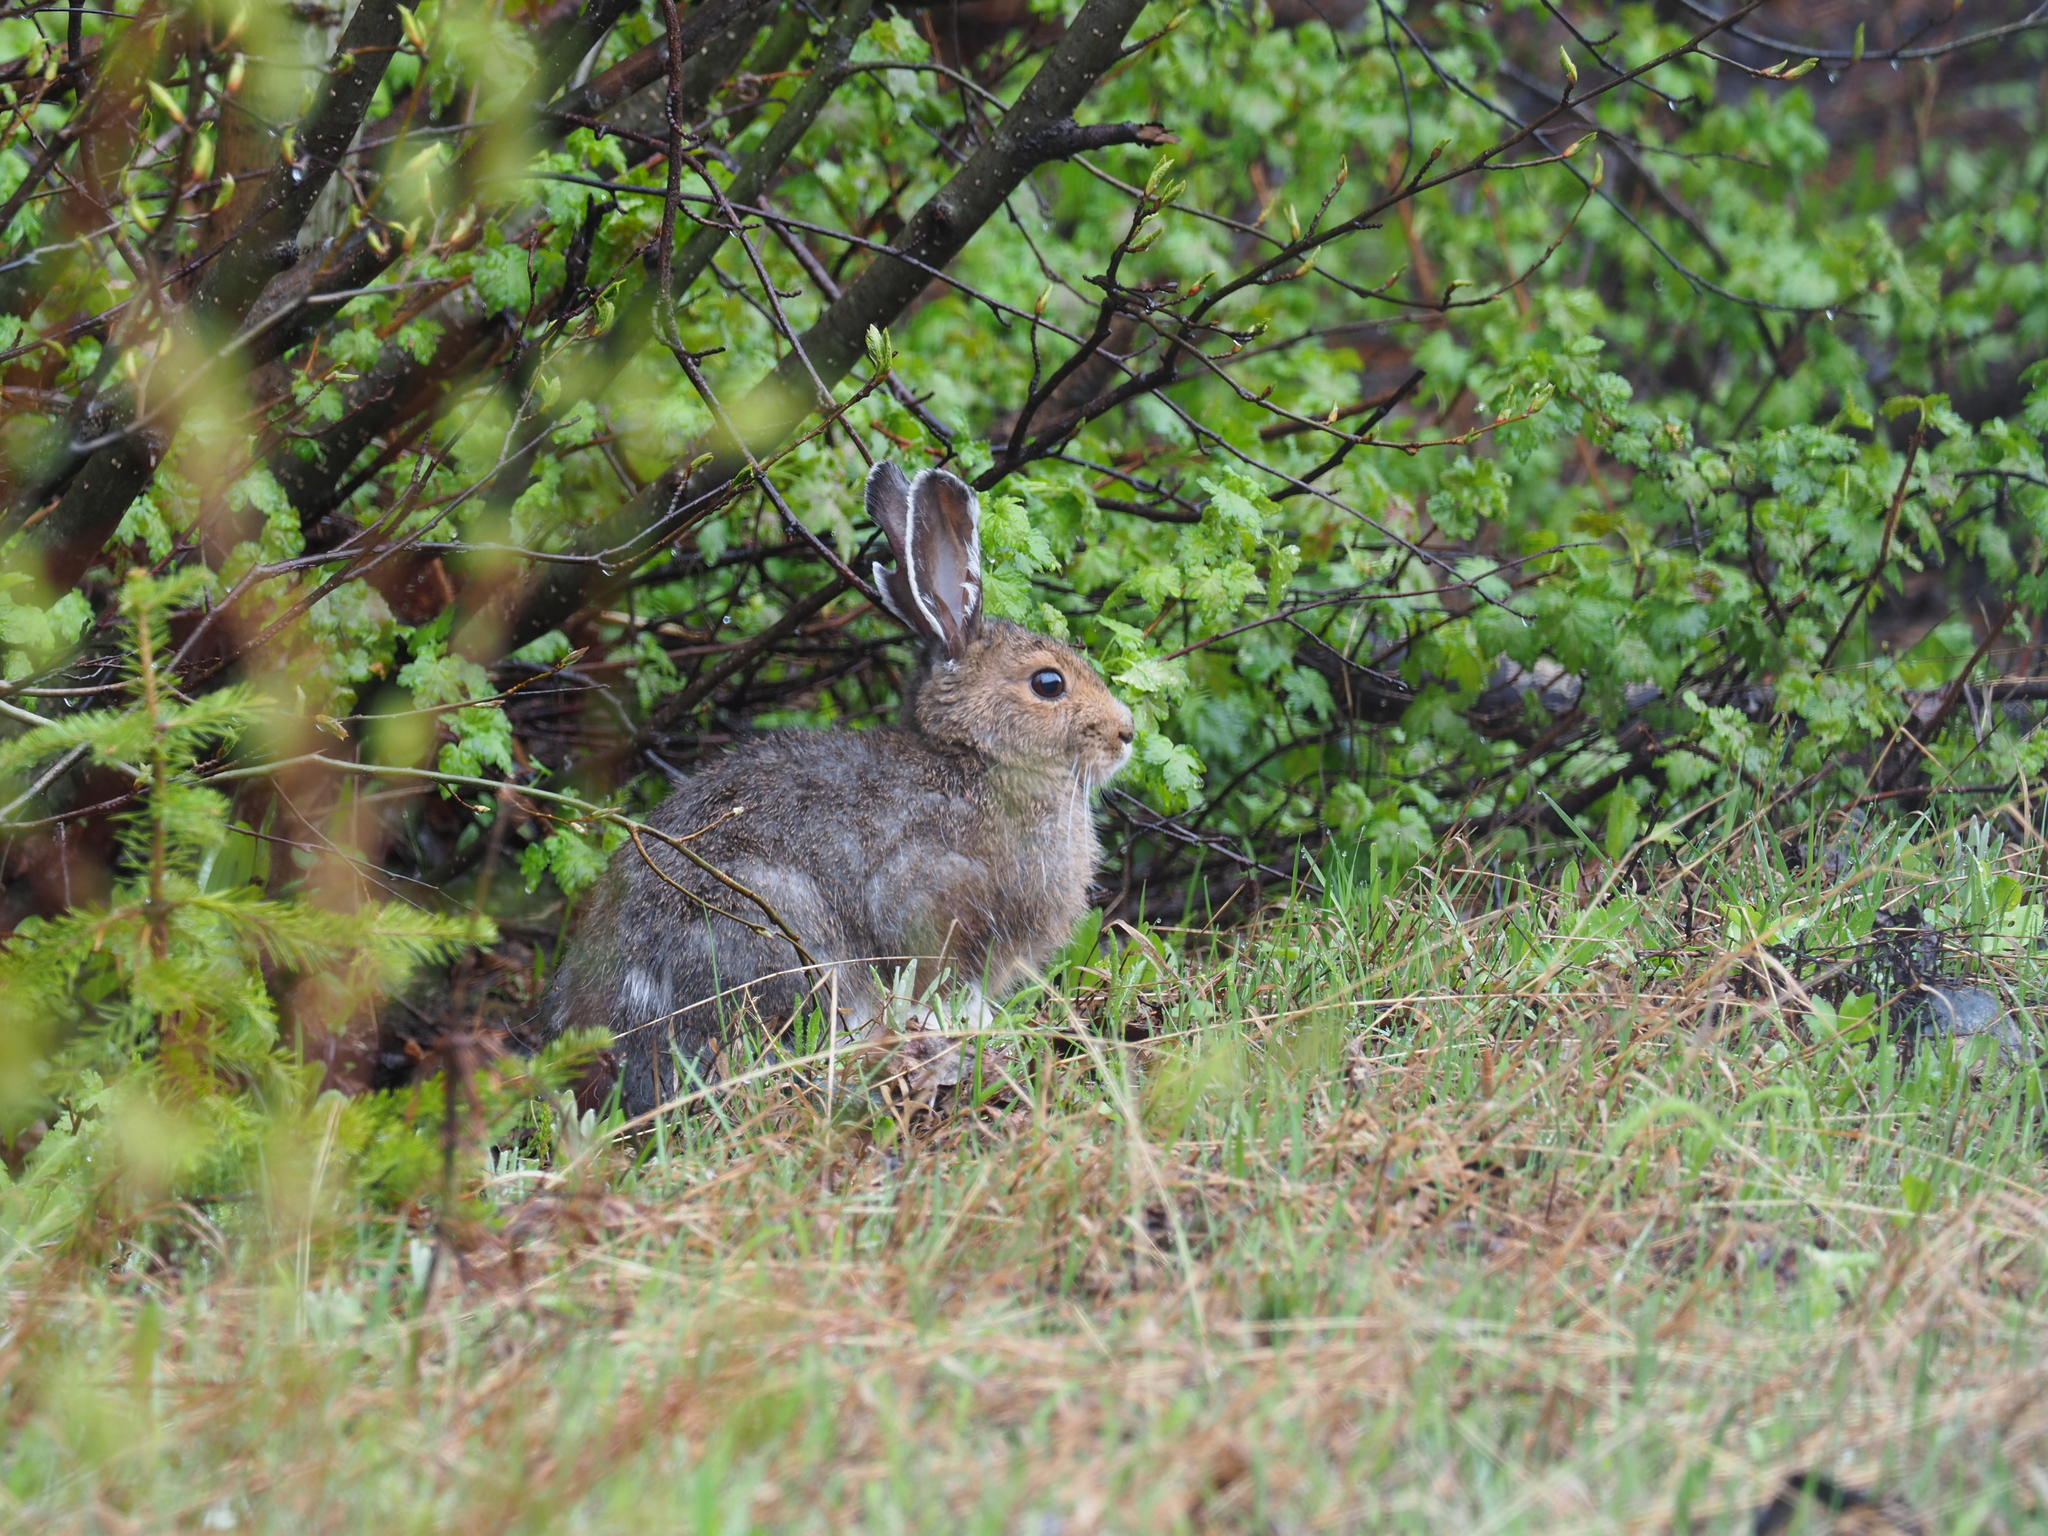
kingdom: Animalia
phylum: Chordata
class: Mammalia
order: Lagomorpha
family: Leporidae
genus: Lepus
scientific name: Lepus americanus
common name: Snowshoe hare
